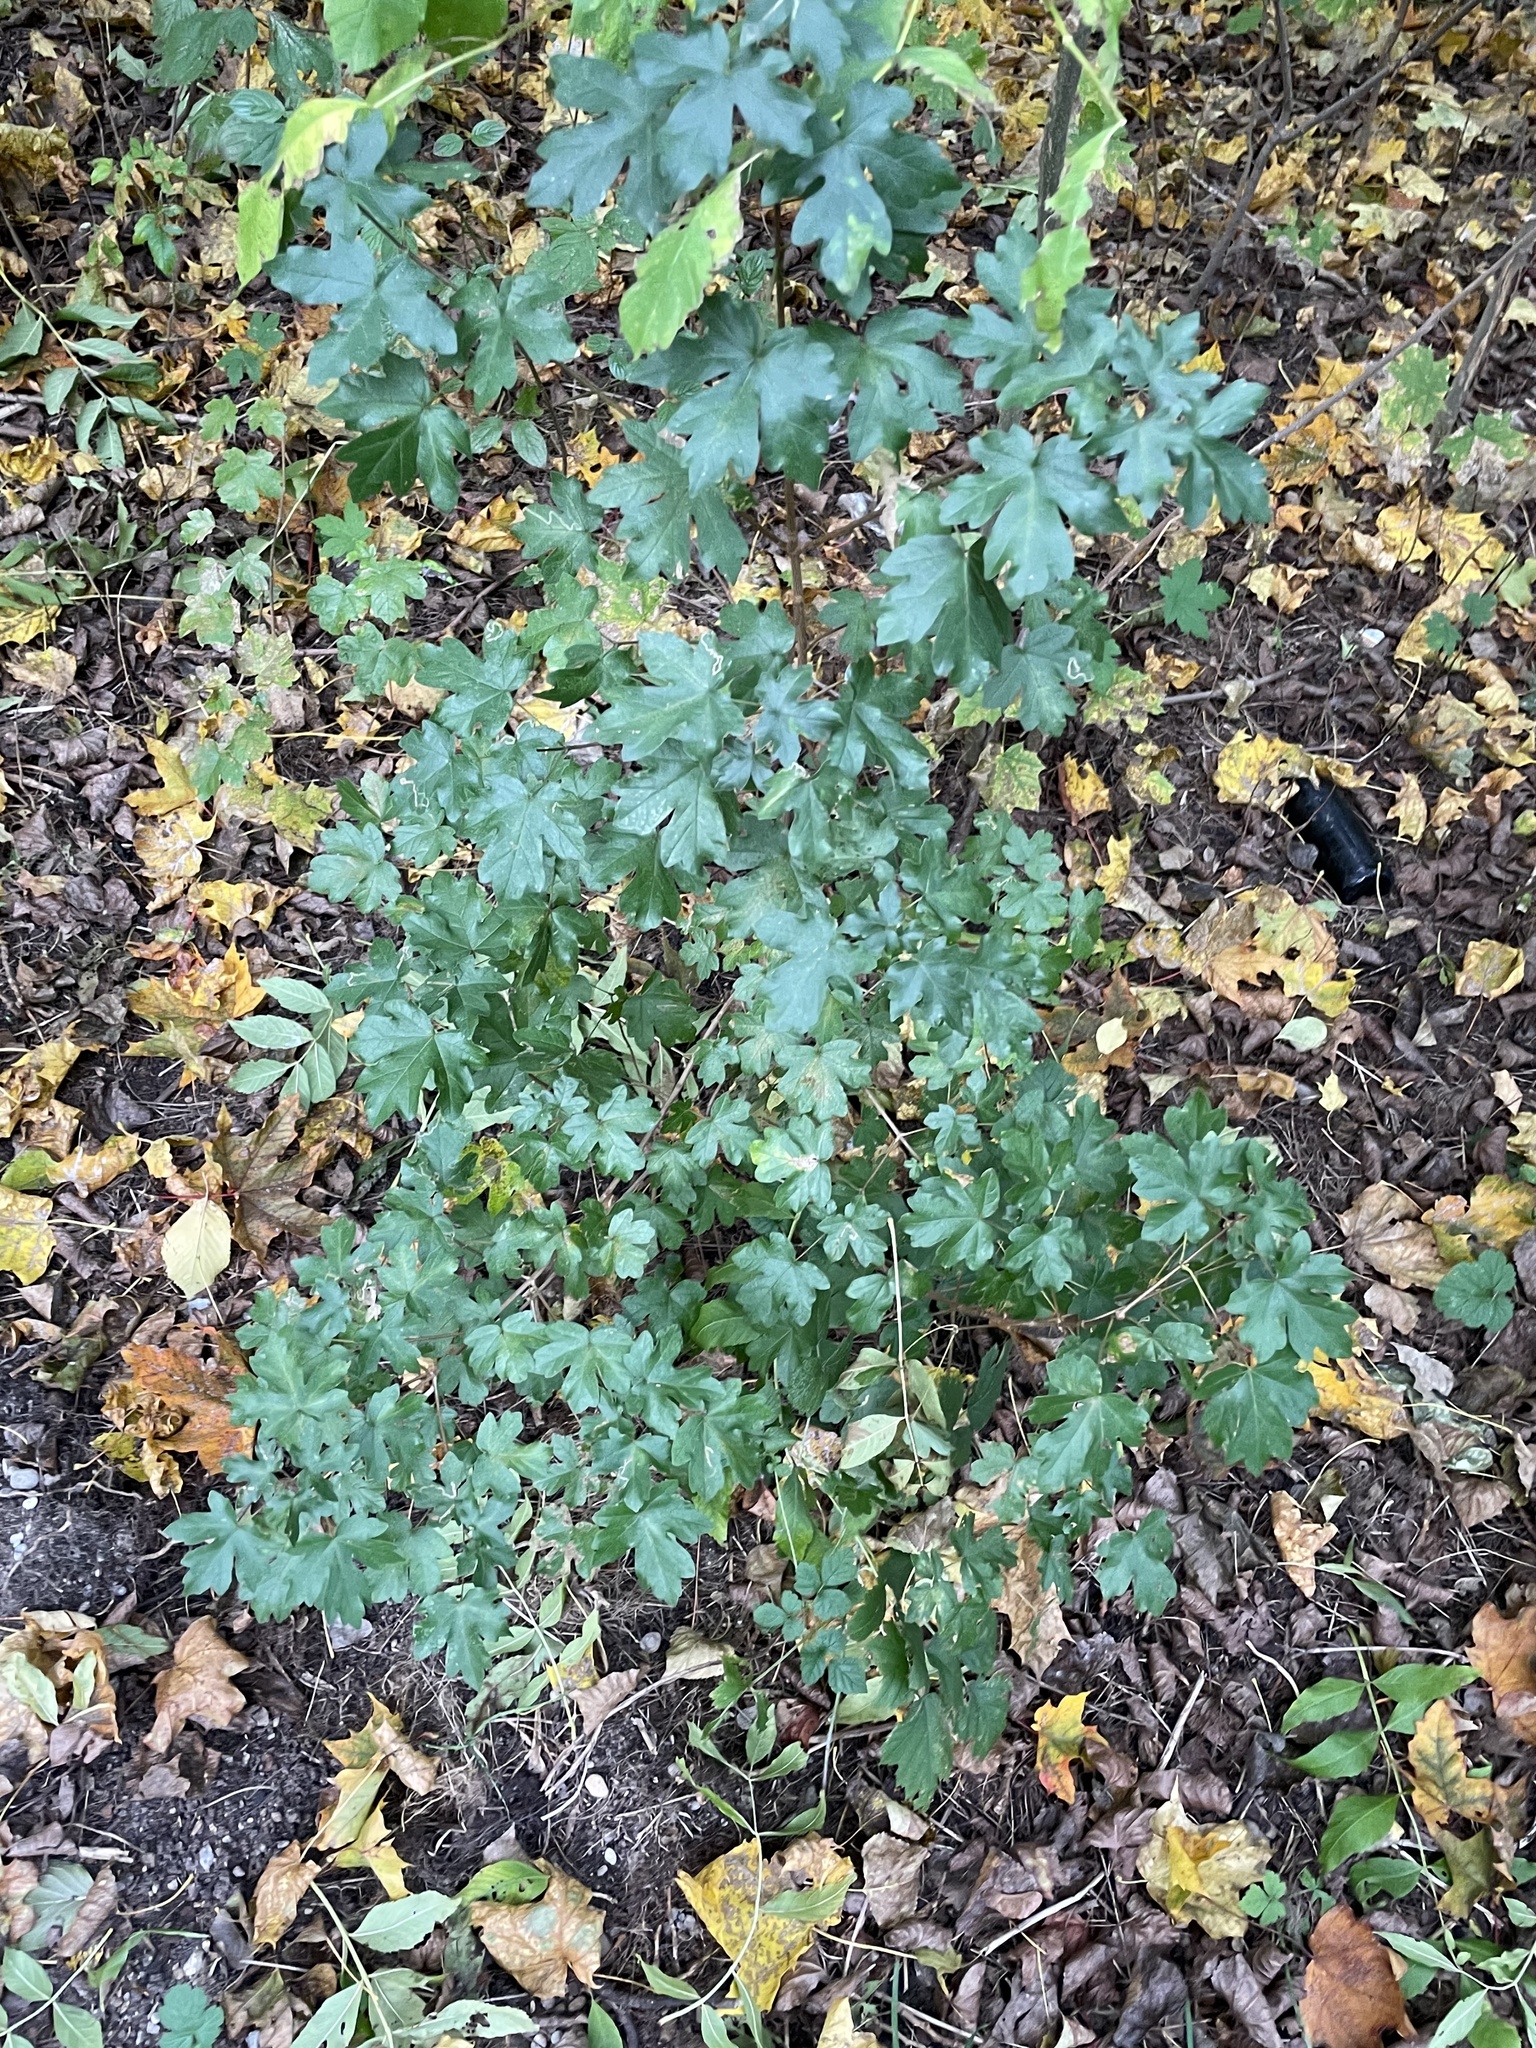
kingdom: Plantae
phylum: Tracheophyta
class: Magnoliopsida
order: Sapindales
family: Sapindaceae
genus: Acer
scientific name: Acer campestre
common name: Field maple
